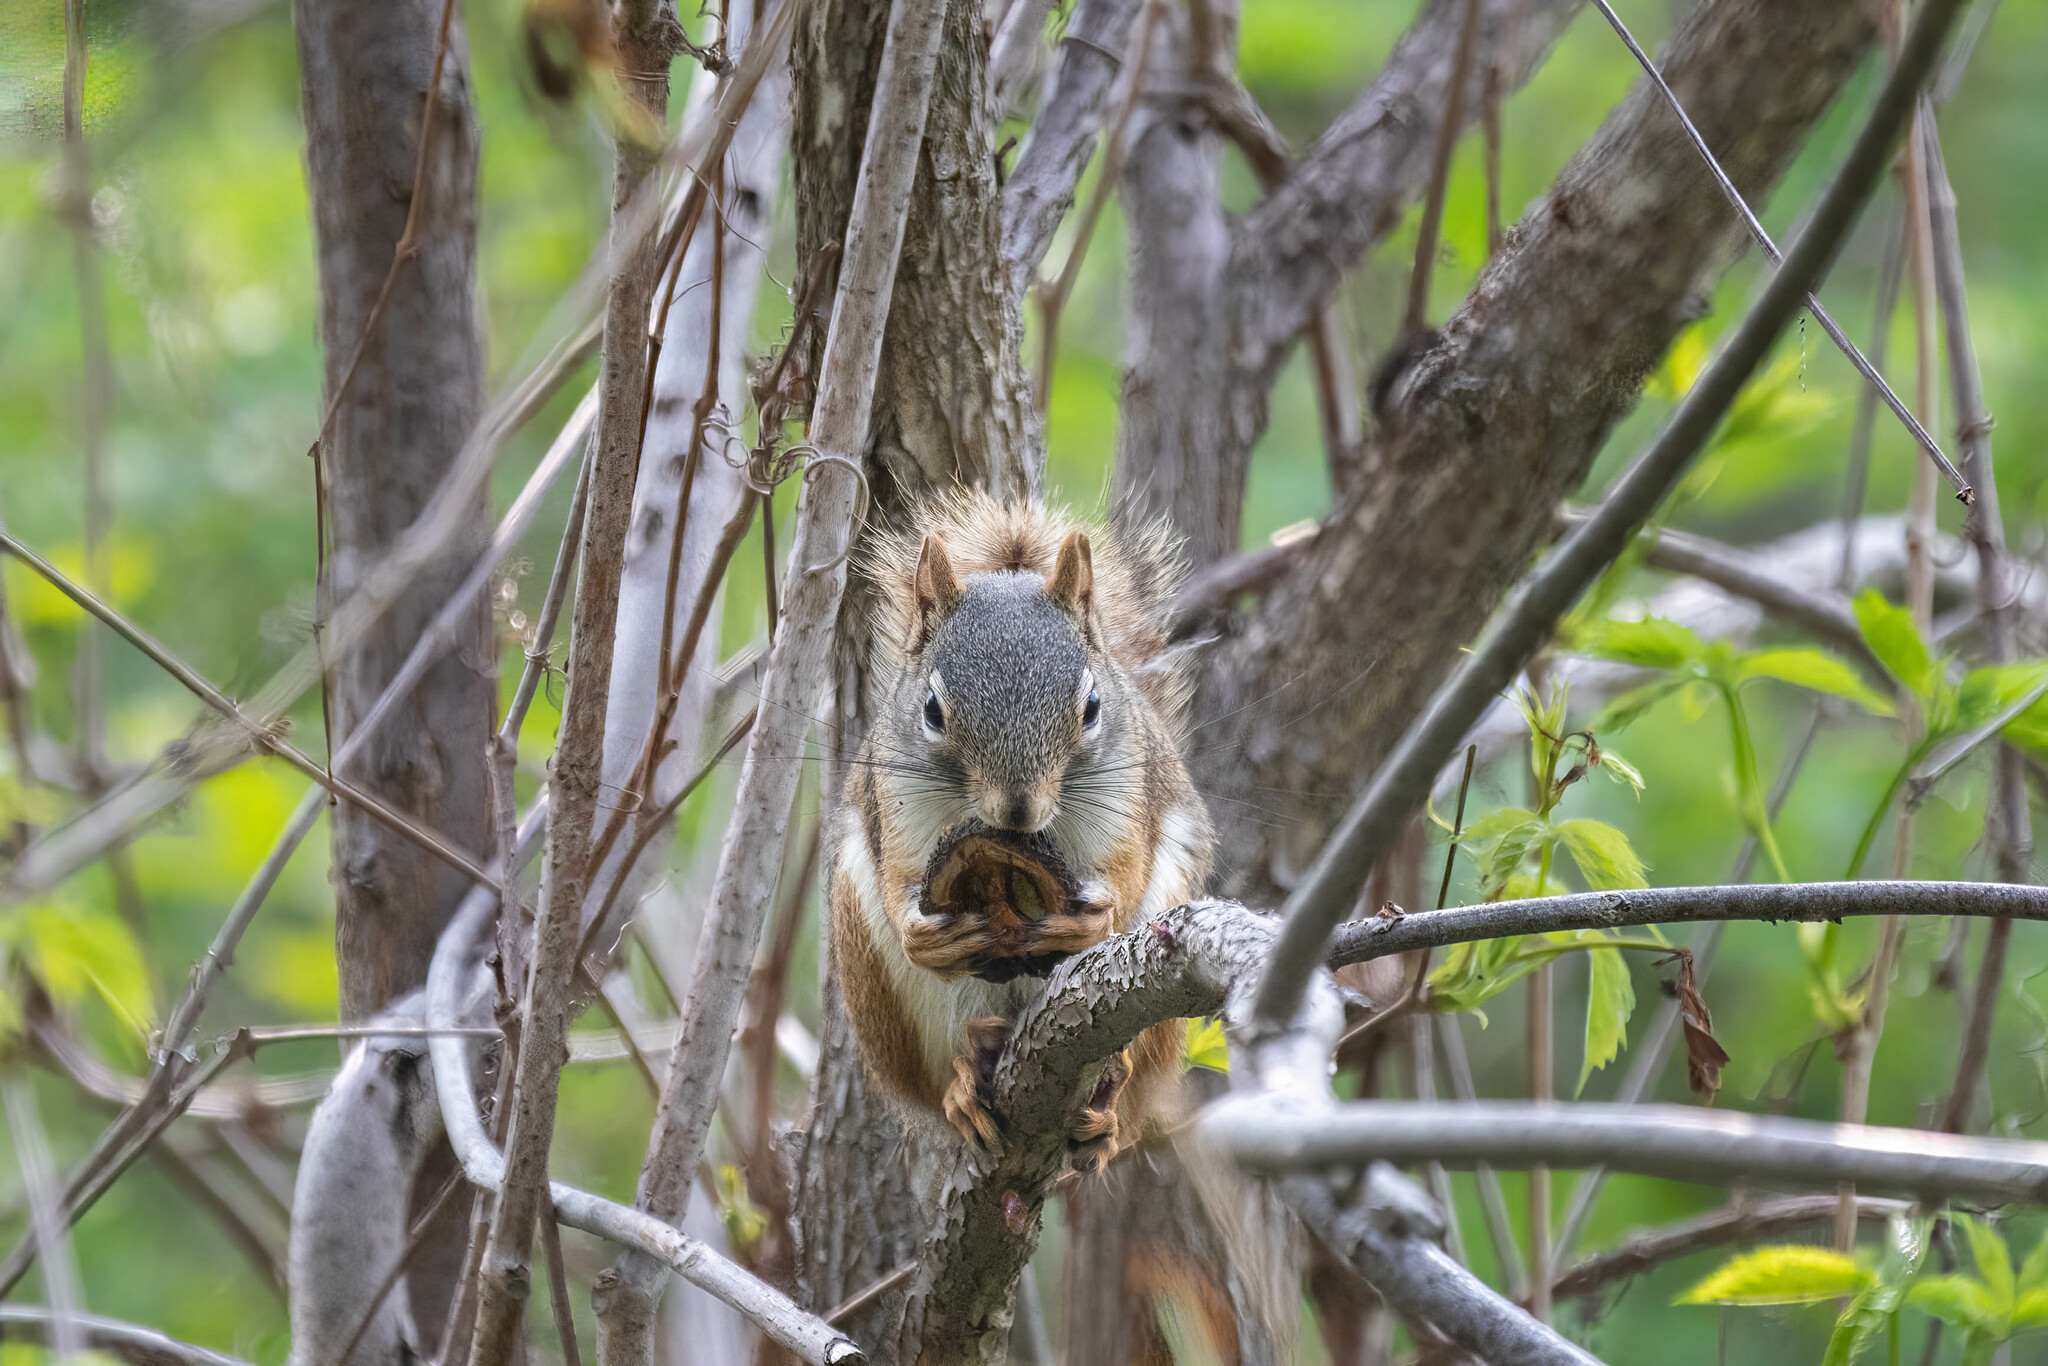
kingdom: Animalia
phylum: Chordata
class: Mammalia
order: Rodentia
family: Sciuridae
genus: Tamiasciurus
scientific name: Tamiasciurus hudsonicus
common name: Red squirrel
